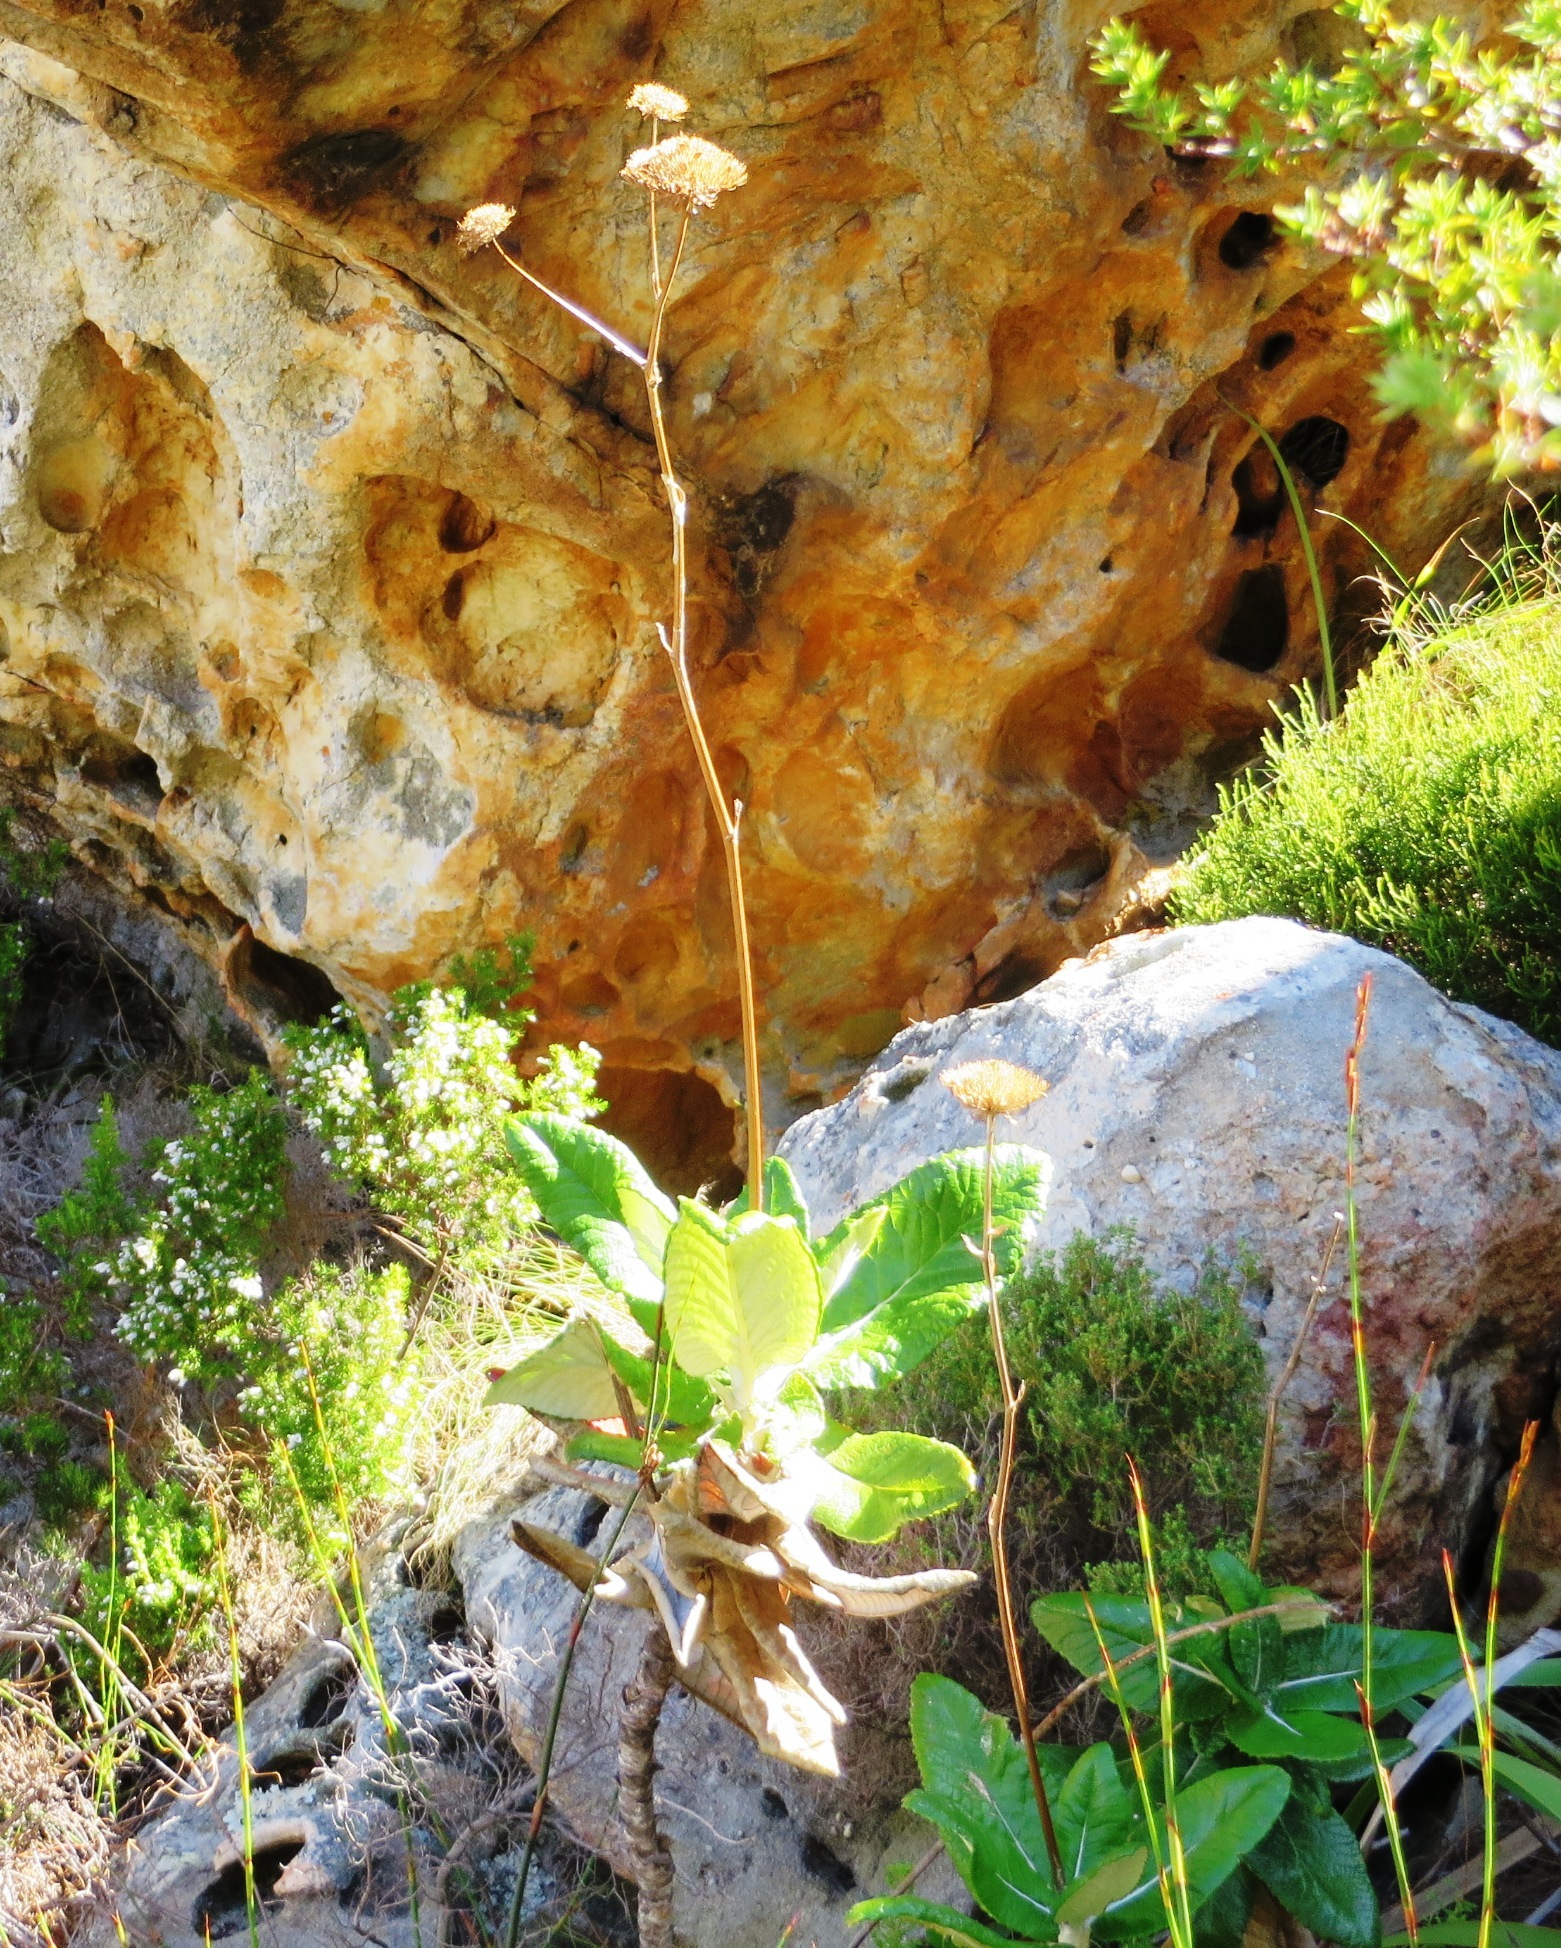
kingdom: Plantae
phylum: Tracheophyta
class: Magnoliopsida
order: Apiales
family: Apiaceae
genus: Hermas
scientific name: Hermas villosa
